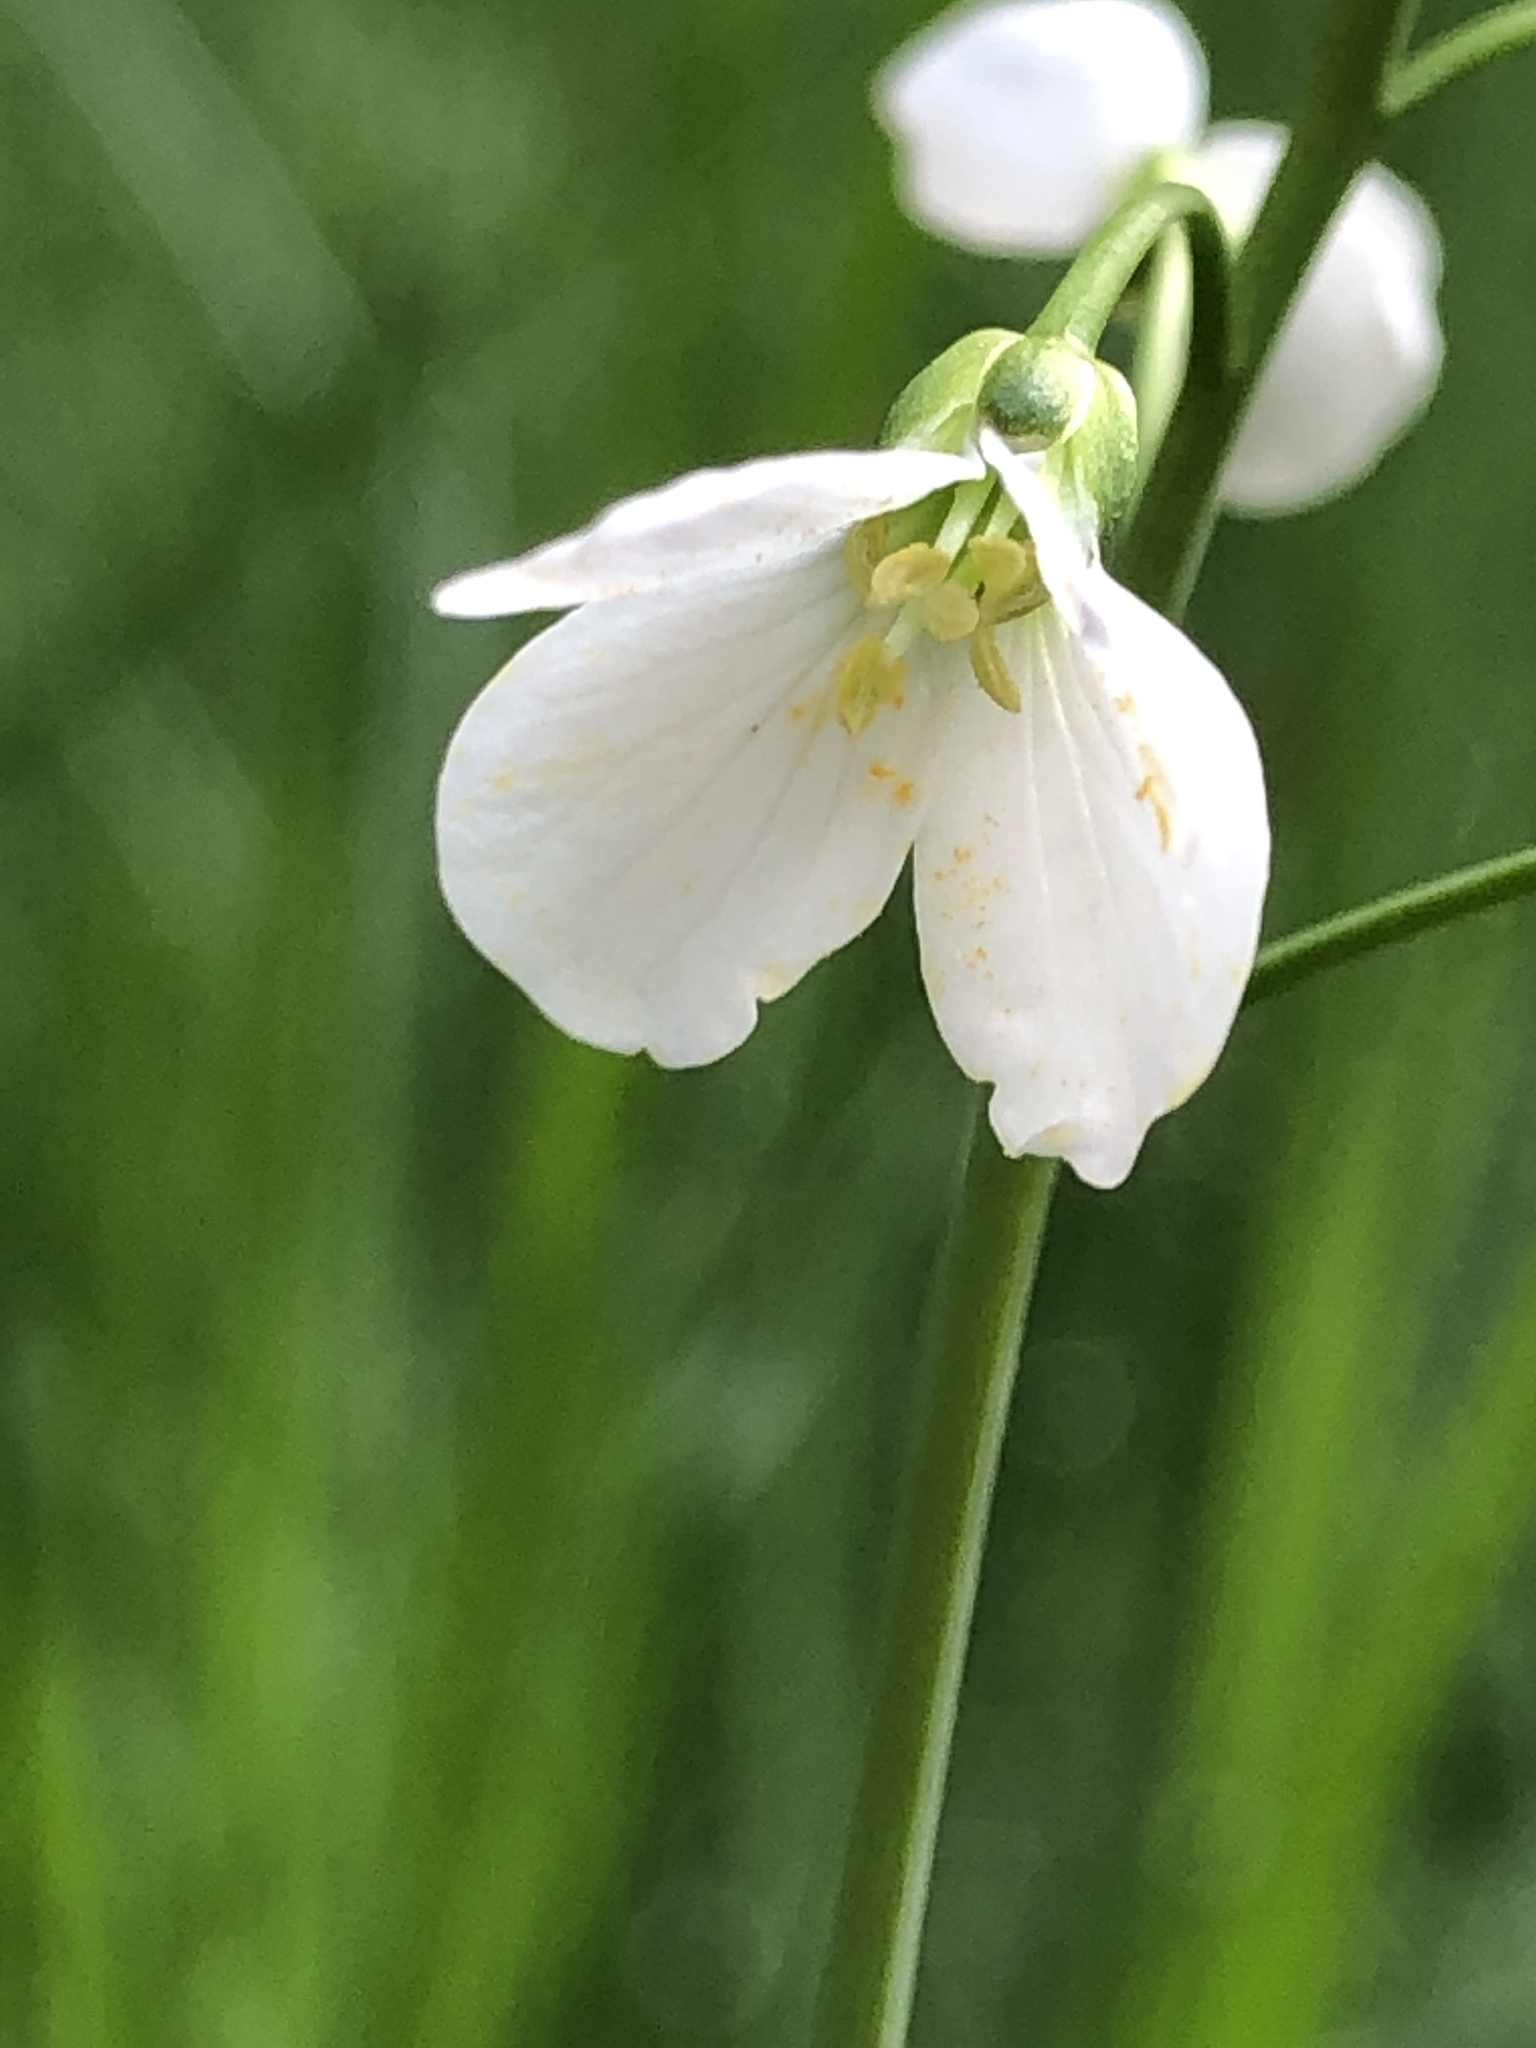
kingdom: Plantae
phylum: Tracheophyta
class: Magnoliopsida
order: Brassicales
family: Brassicaceae
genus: Cardamine
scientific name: Cardamine pratensis
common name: Cuckoo flower
